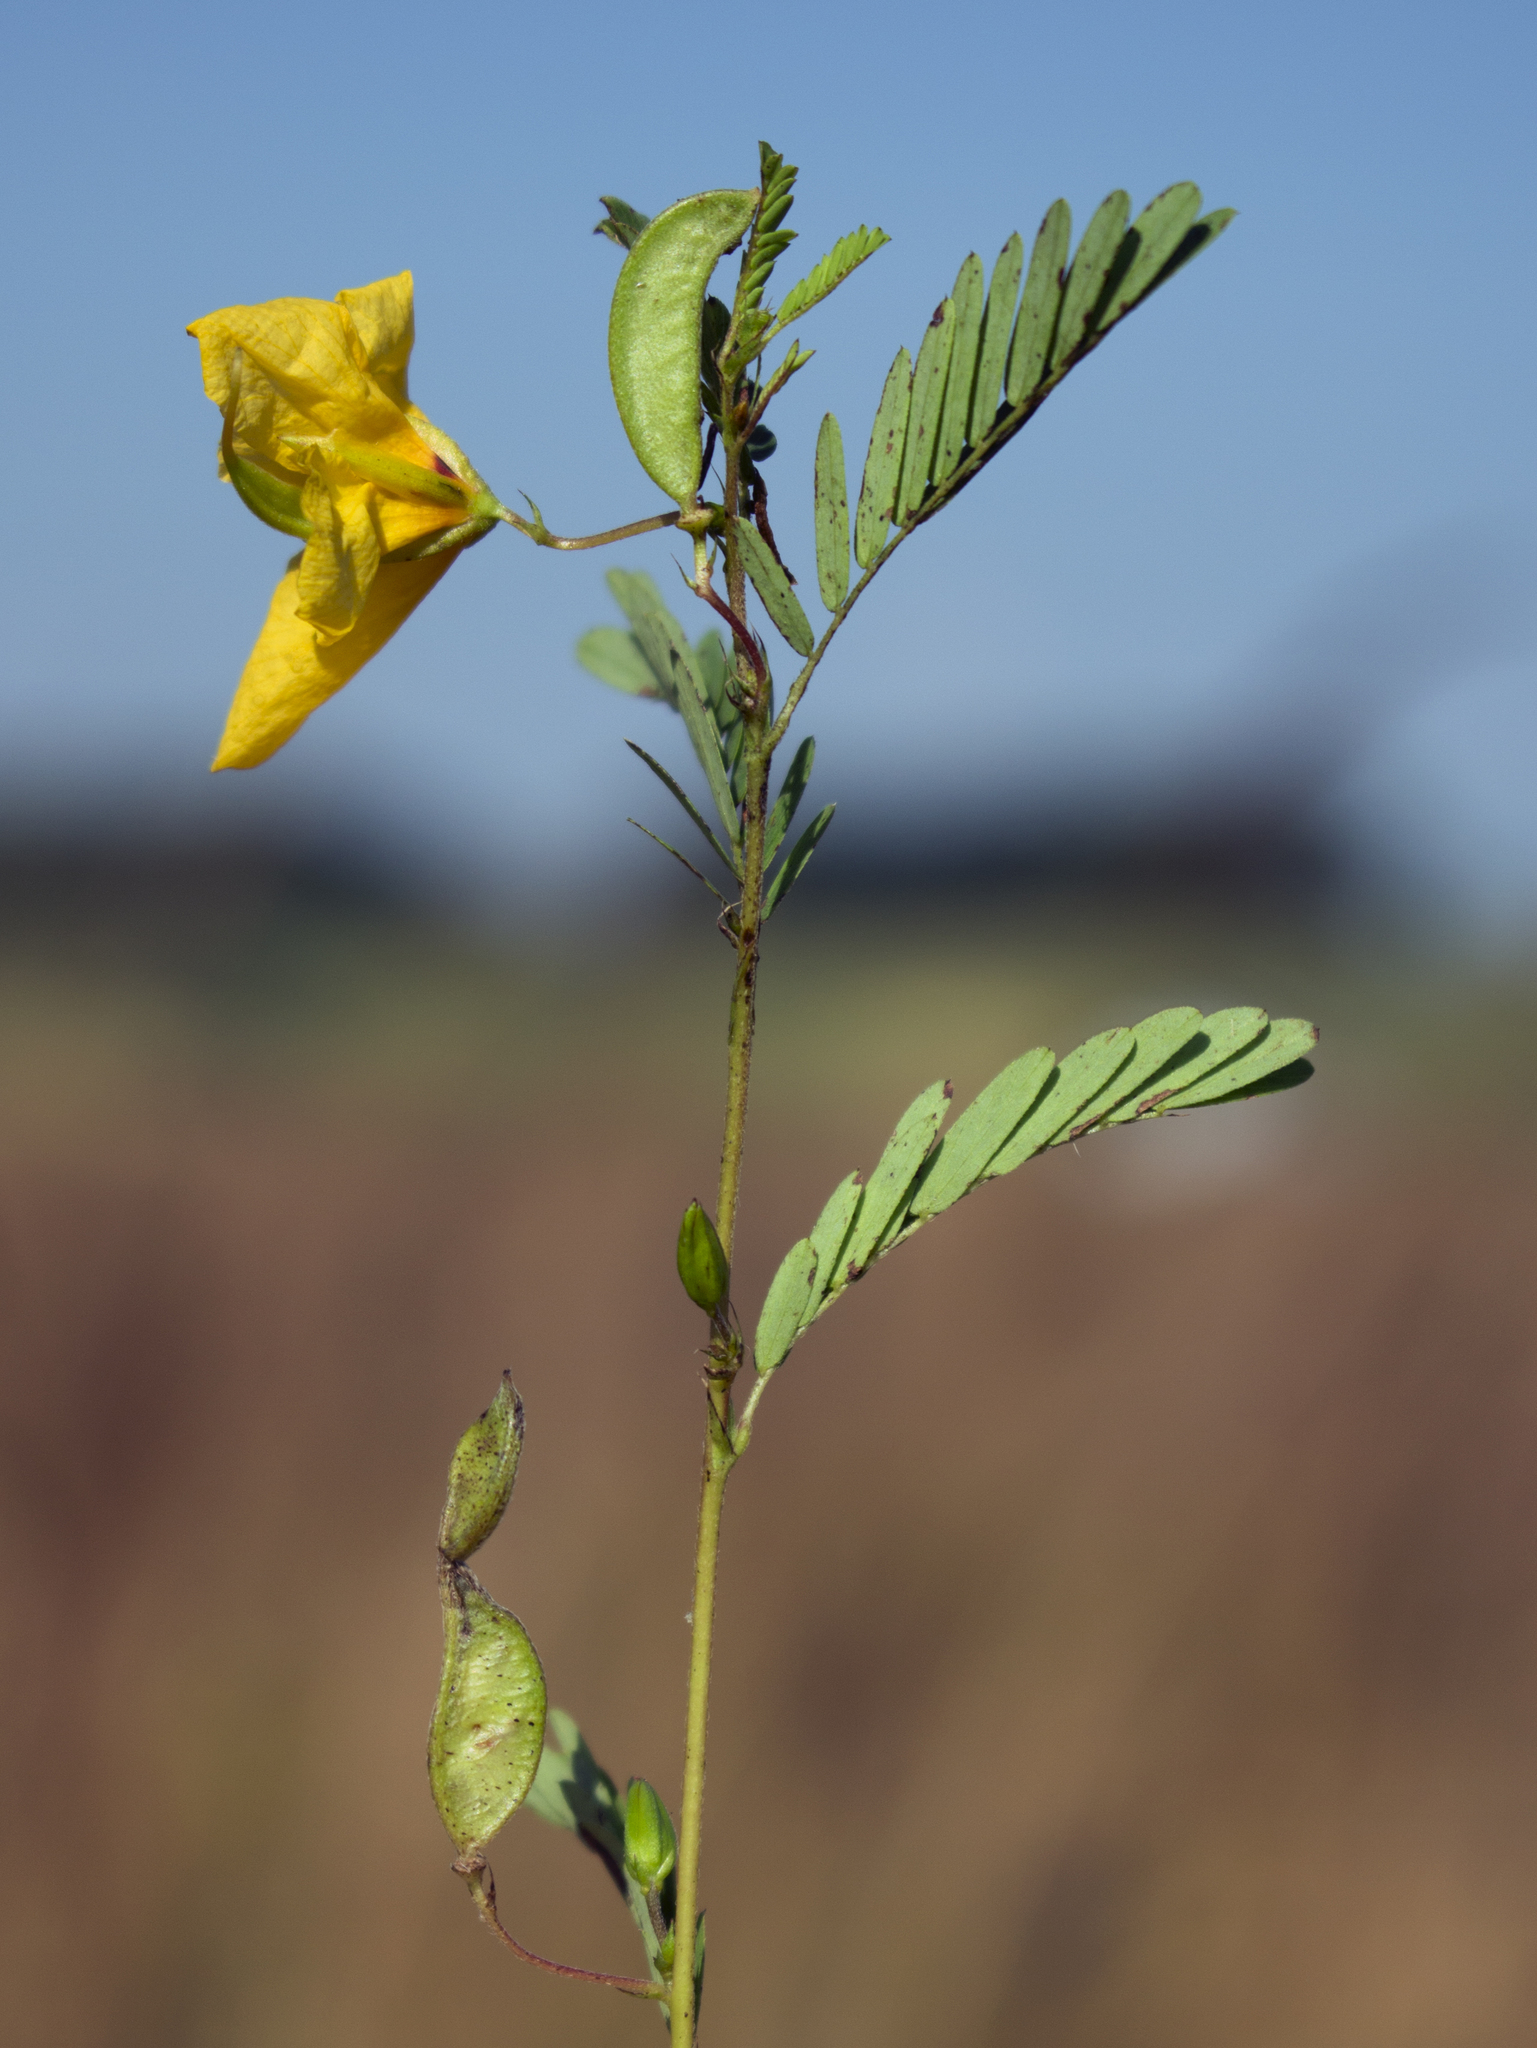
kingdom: Plantae
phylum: Tracheophyta
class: Magnoliopsida
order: Fabales
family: Fabaceae
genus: Chamaecrista
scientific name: Chamaecrista fasciculata
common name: Golden cassia
